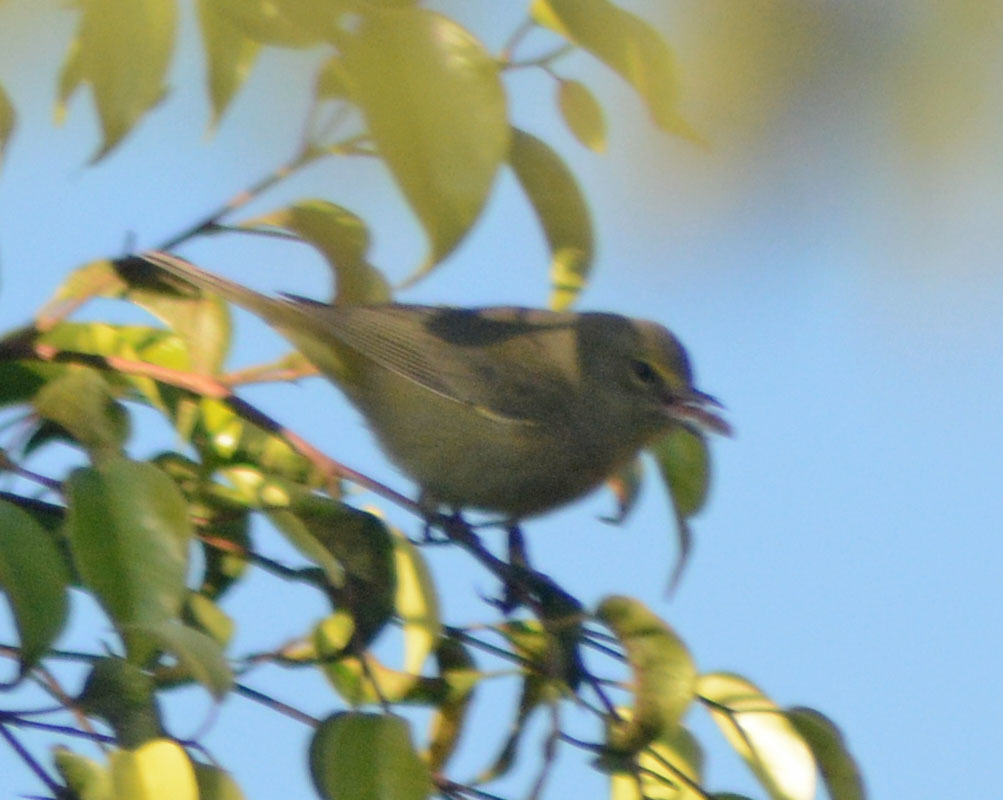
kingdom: Animalia
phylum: Chordata
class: Aves
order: Passeriformes
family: Parulidae
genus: Leiothlypis
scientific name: Leiothlypis celata
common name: Orange-crowned warbler
